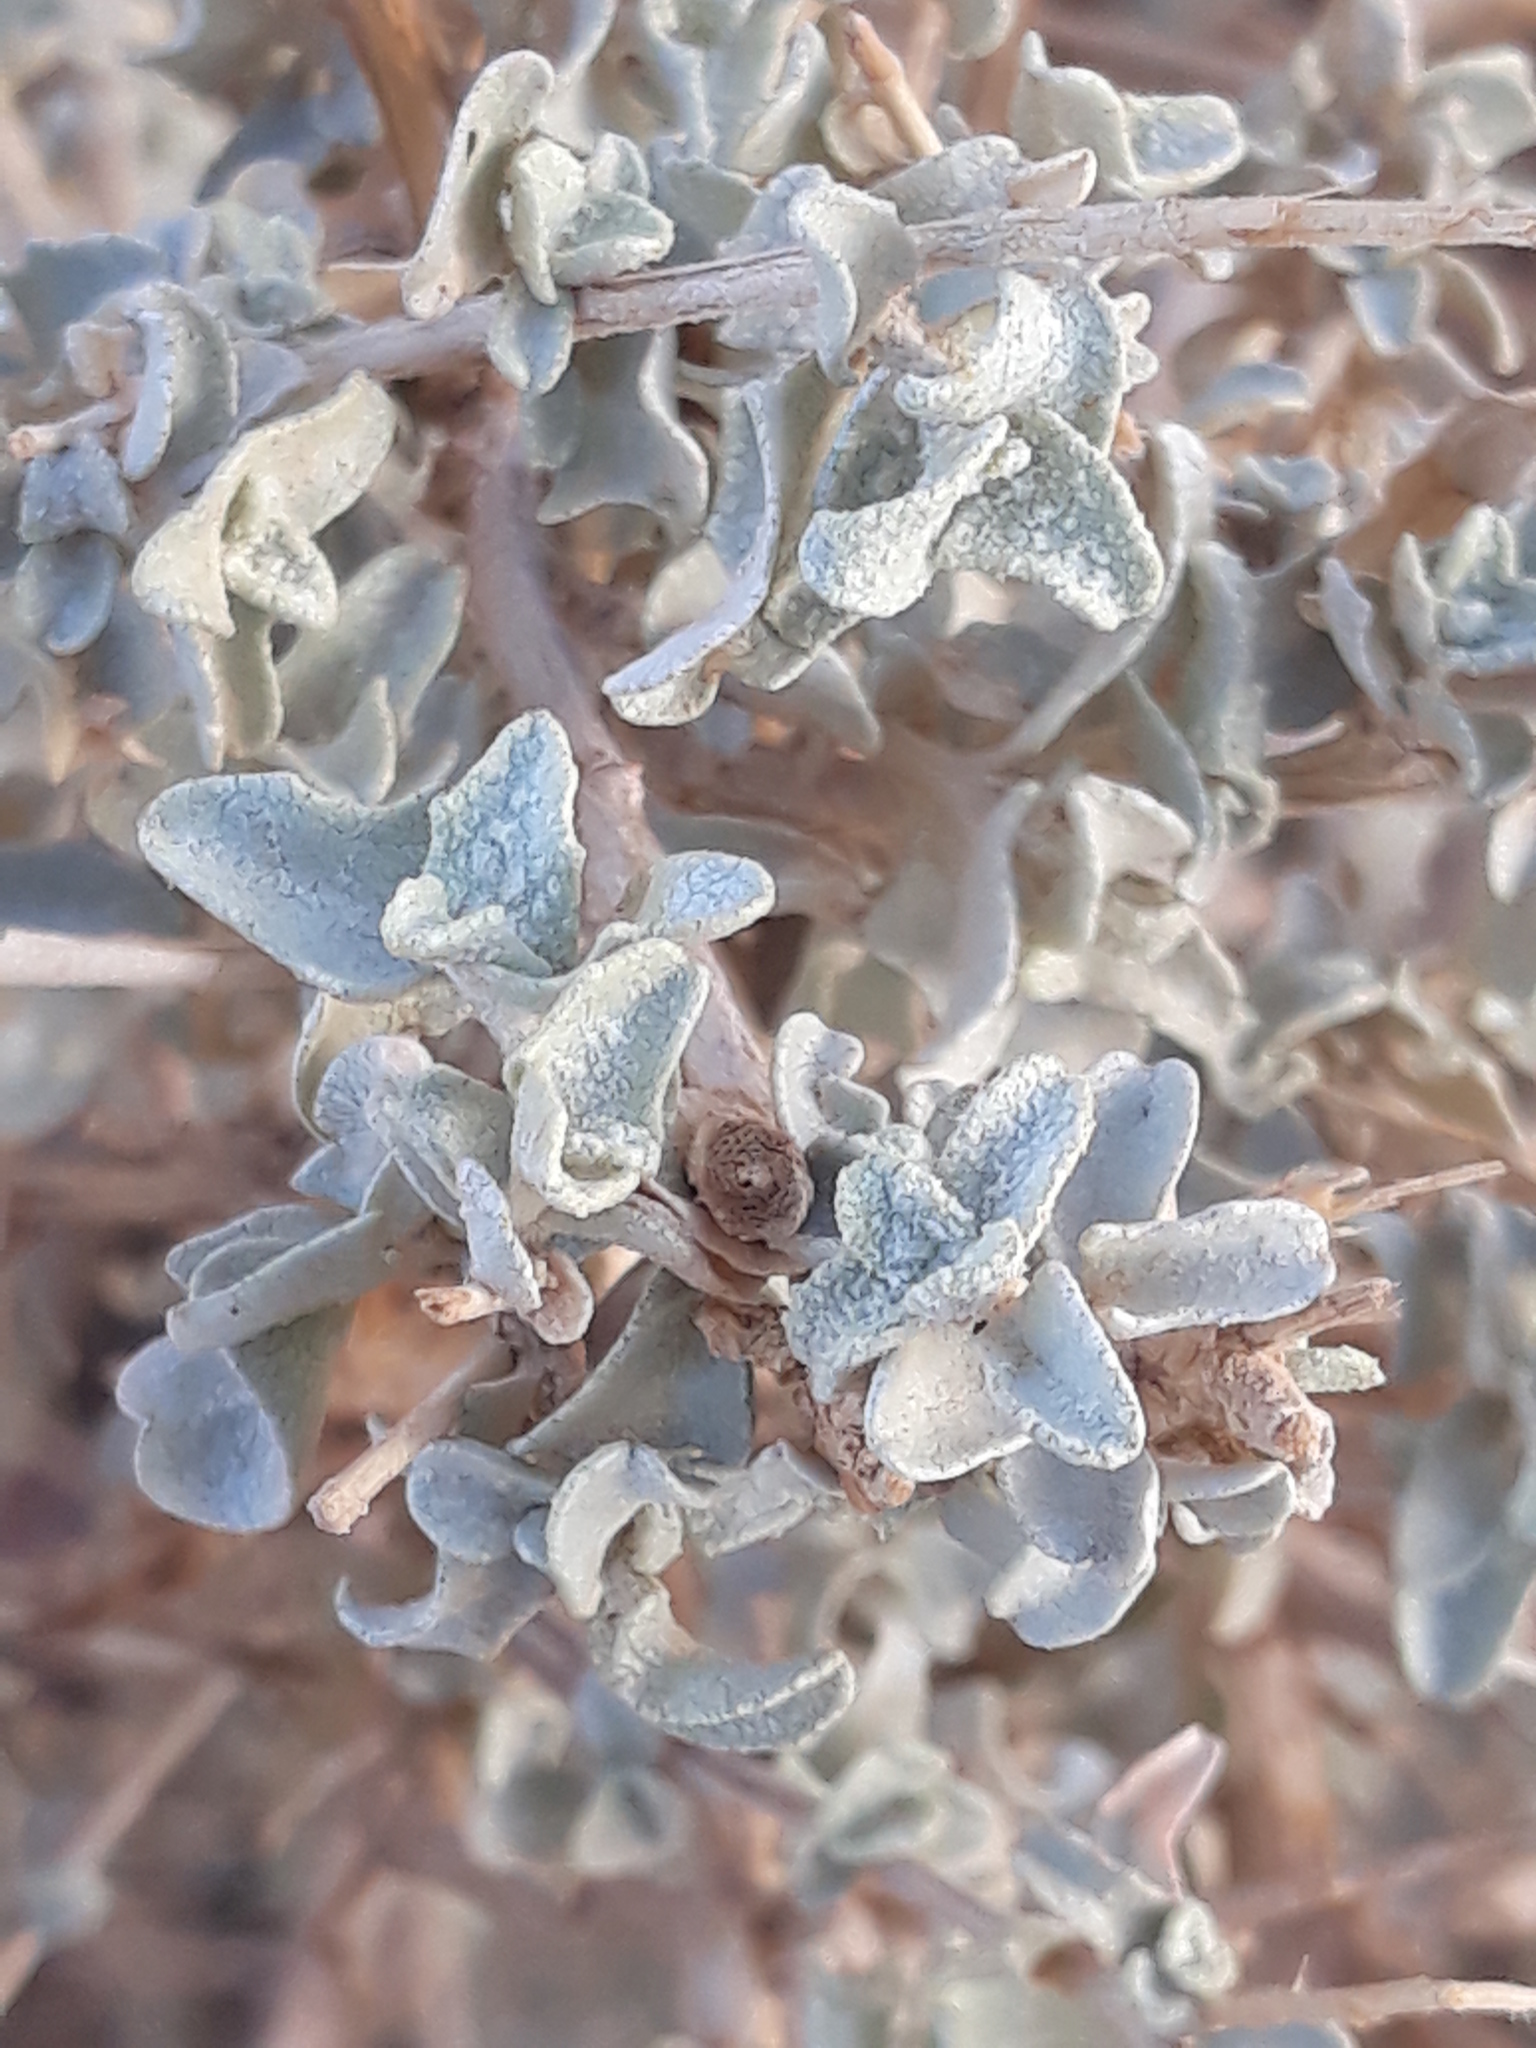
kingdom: Plantae
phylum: Tracheophyta
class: Magnoliopsida
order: Caryophyllales
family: Amaranthaceae
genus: Atriplex
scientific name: Atriplex halimus
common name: Shrubby orache
